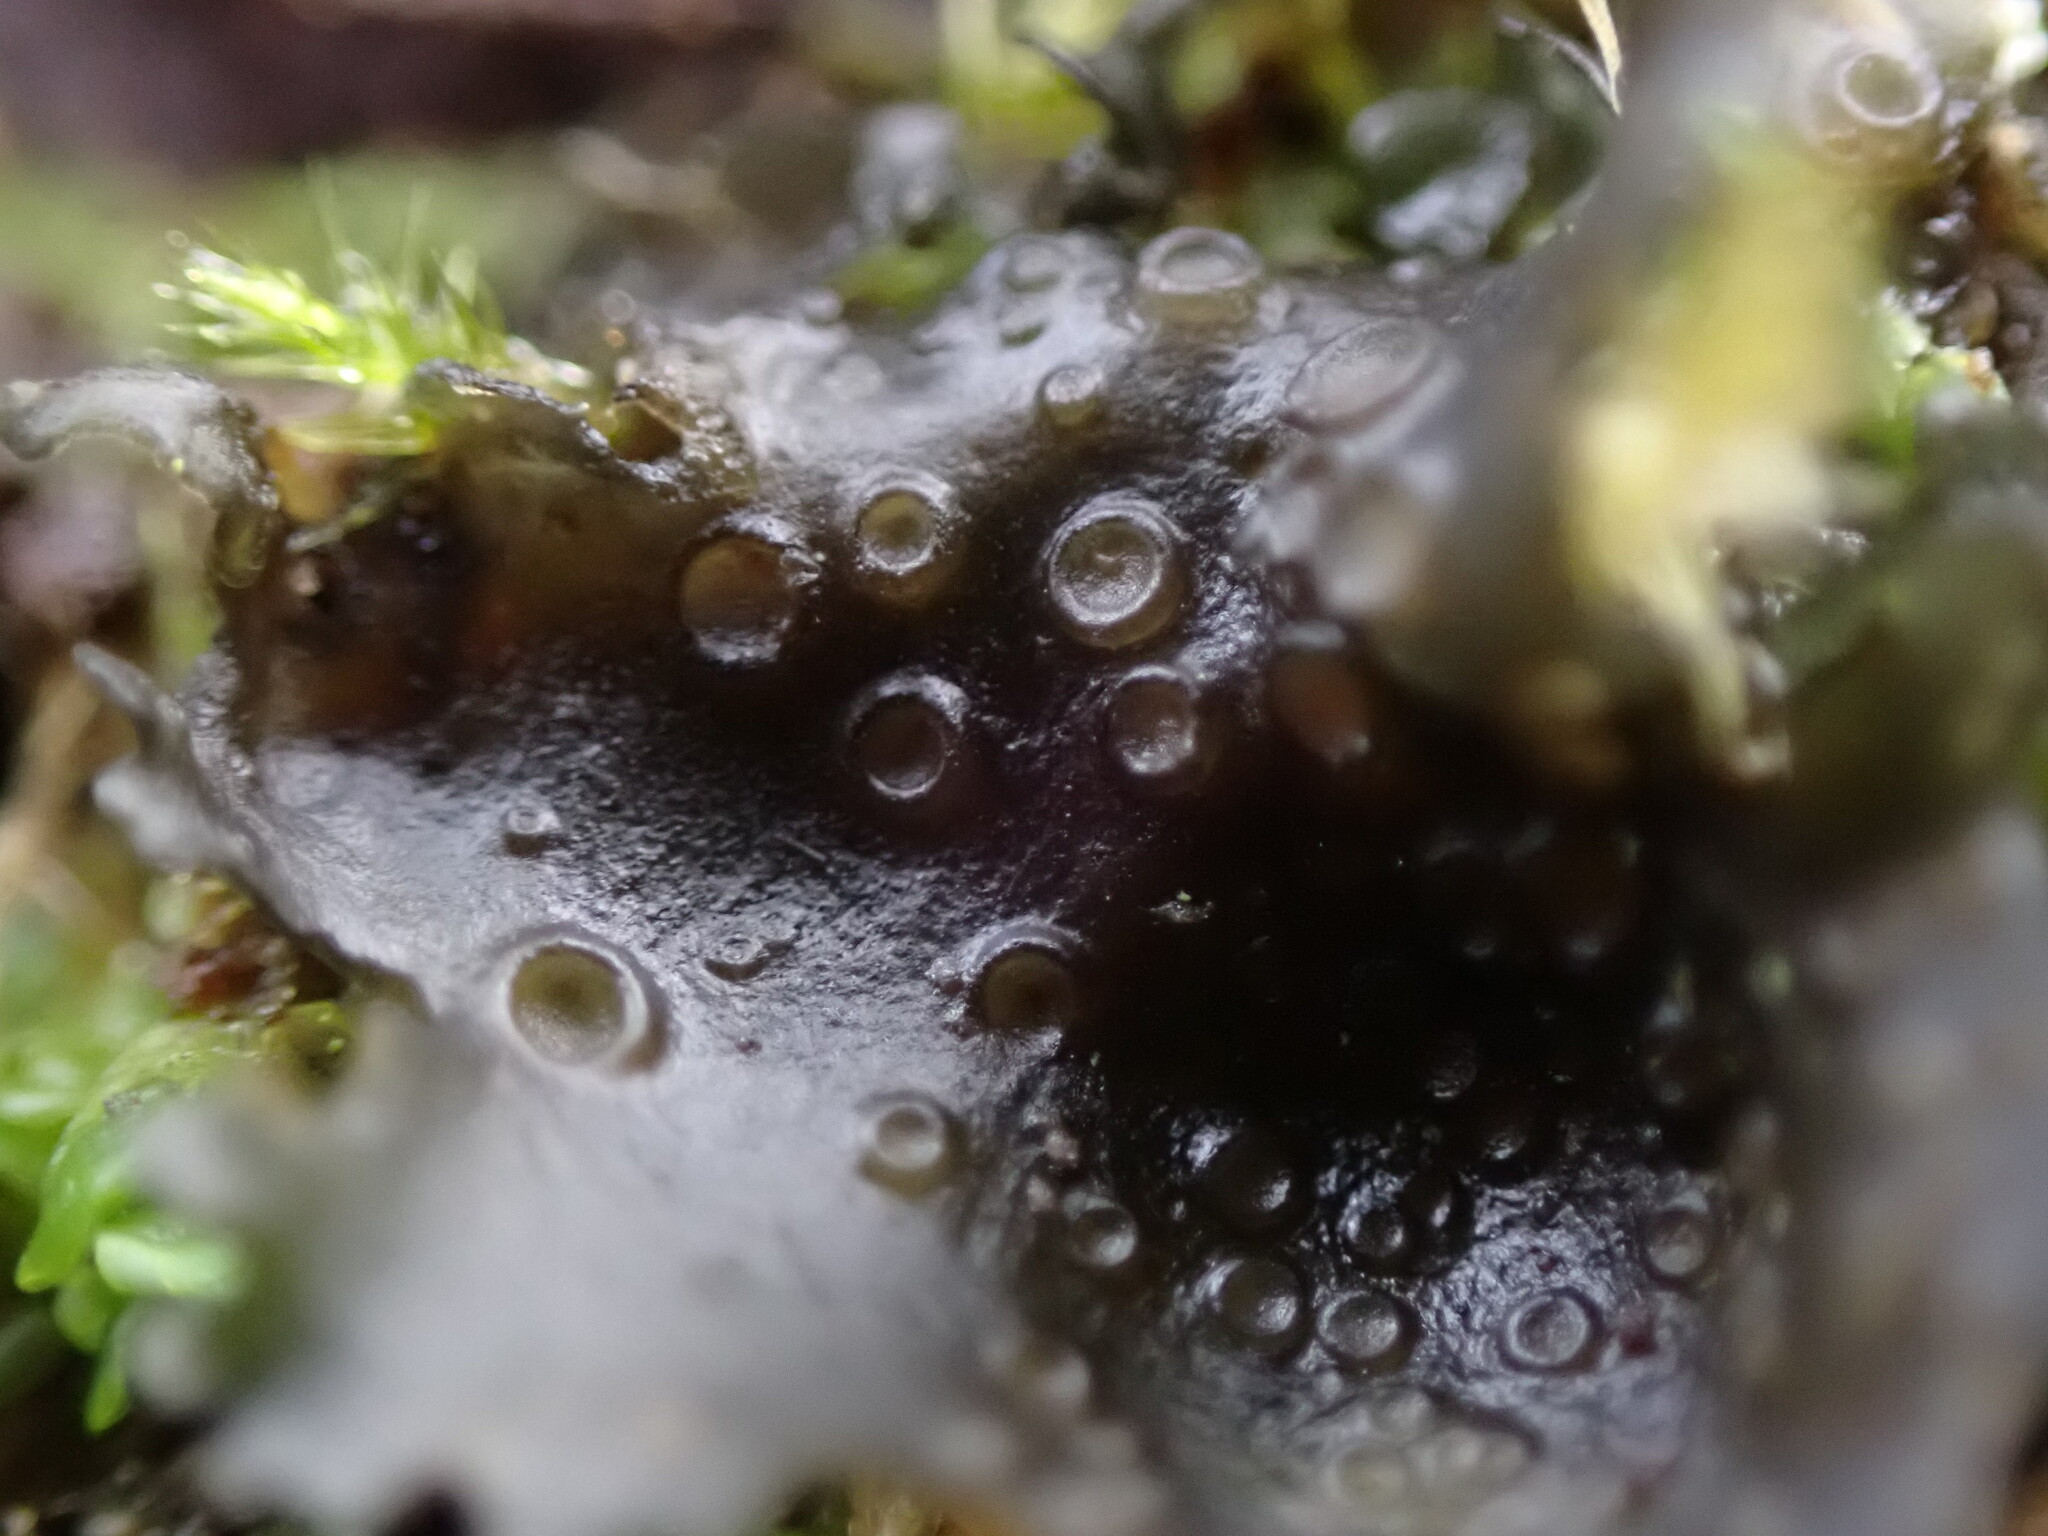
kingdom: Fungi
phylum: Ascomycota
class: Lecanoromycetes
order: Peltigerales
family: Collemataceae
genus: Scytinium
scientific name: Scytinium polycarpum
